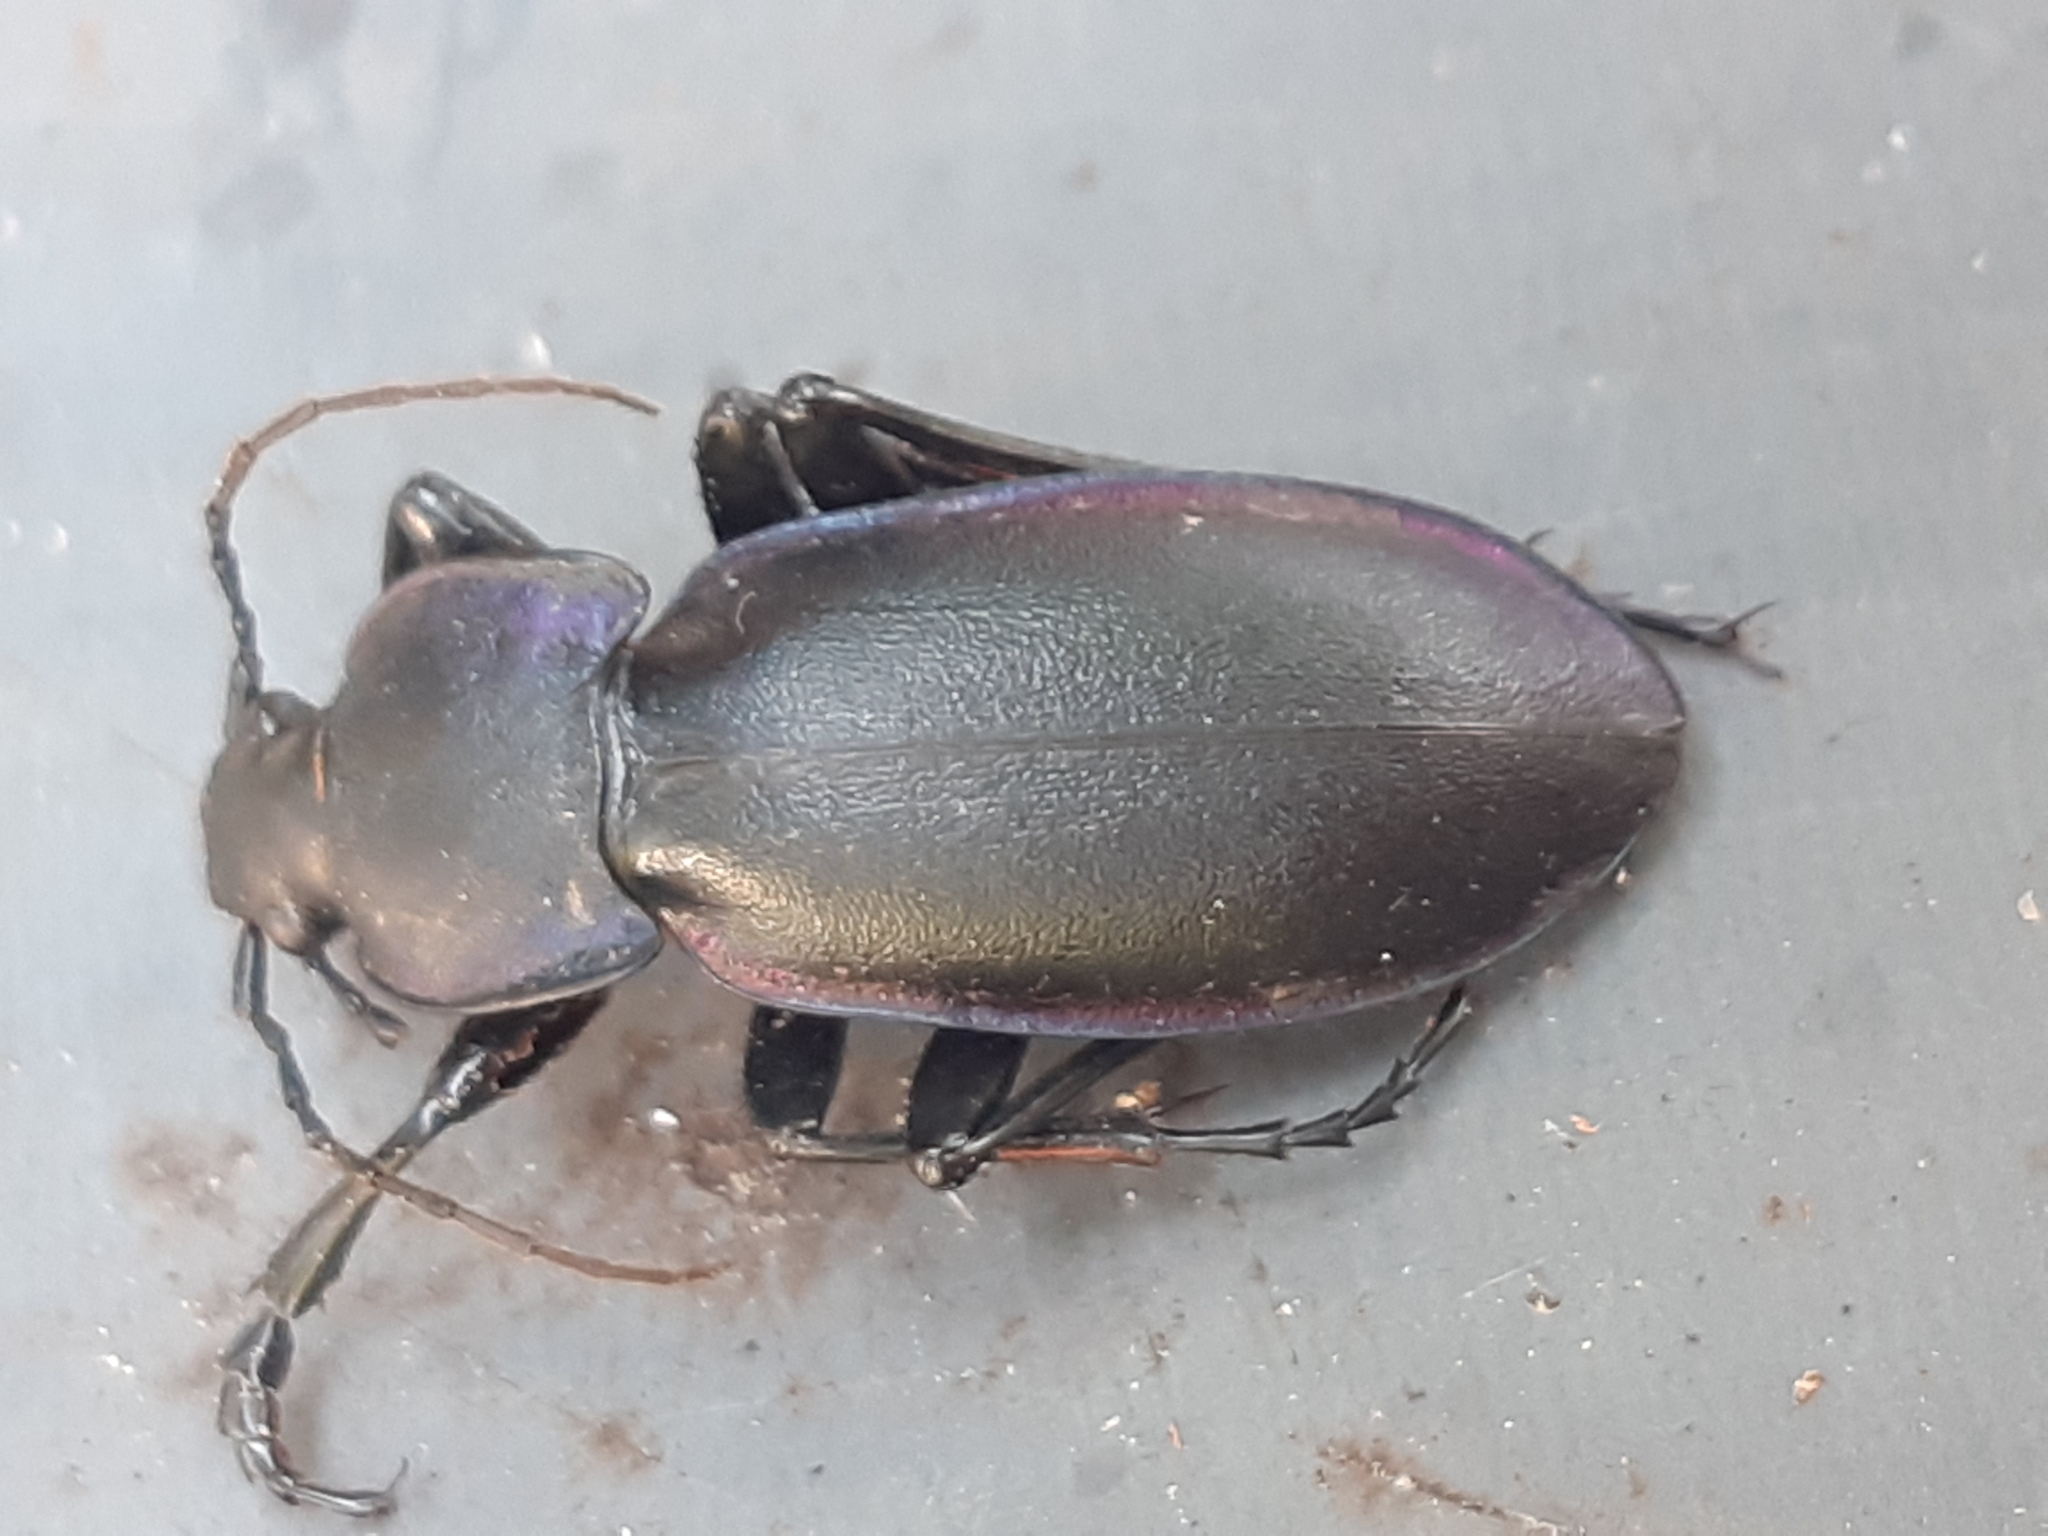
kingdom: Animalia
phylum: Arthropoda
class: Insecta
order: Coleoptera
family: Carabidae
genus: Carabus
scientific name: Carabus violaceus
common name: Violet ground beetle
